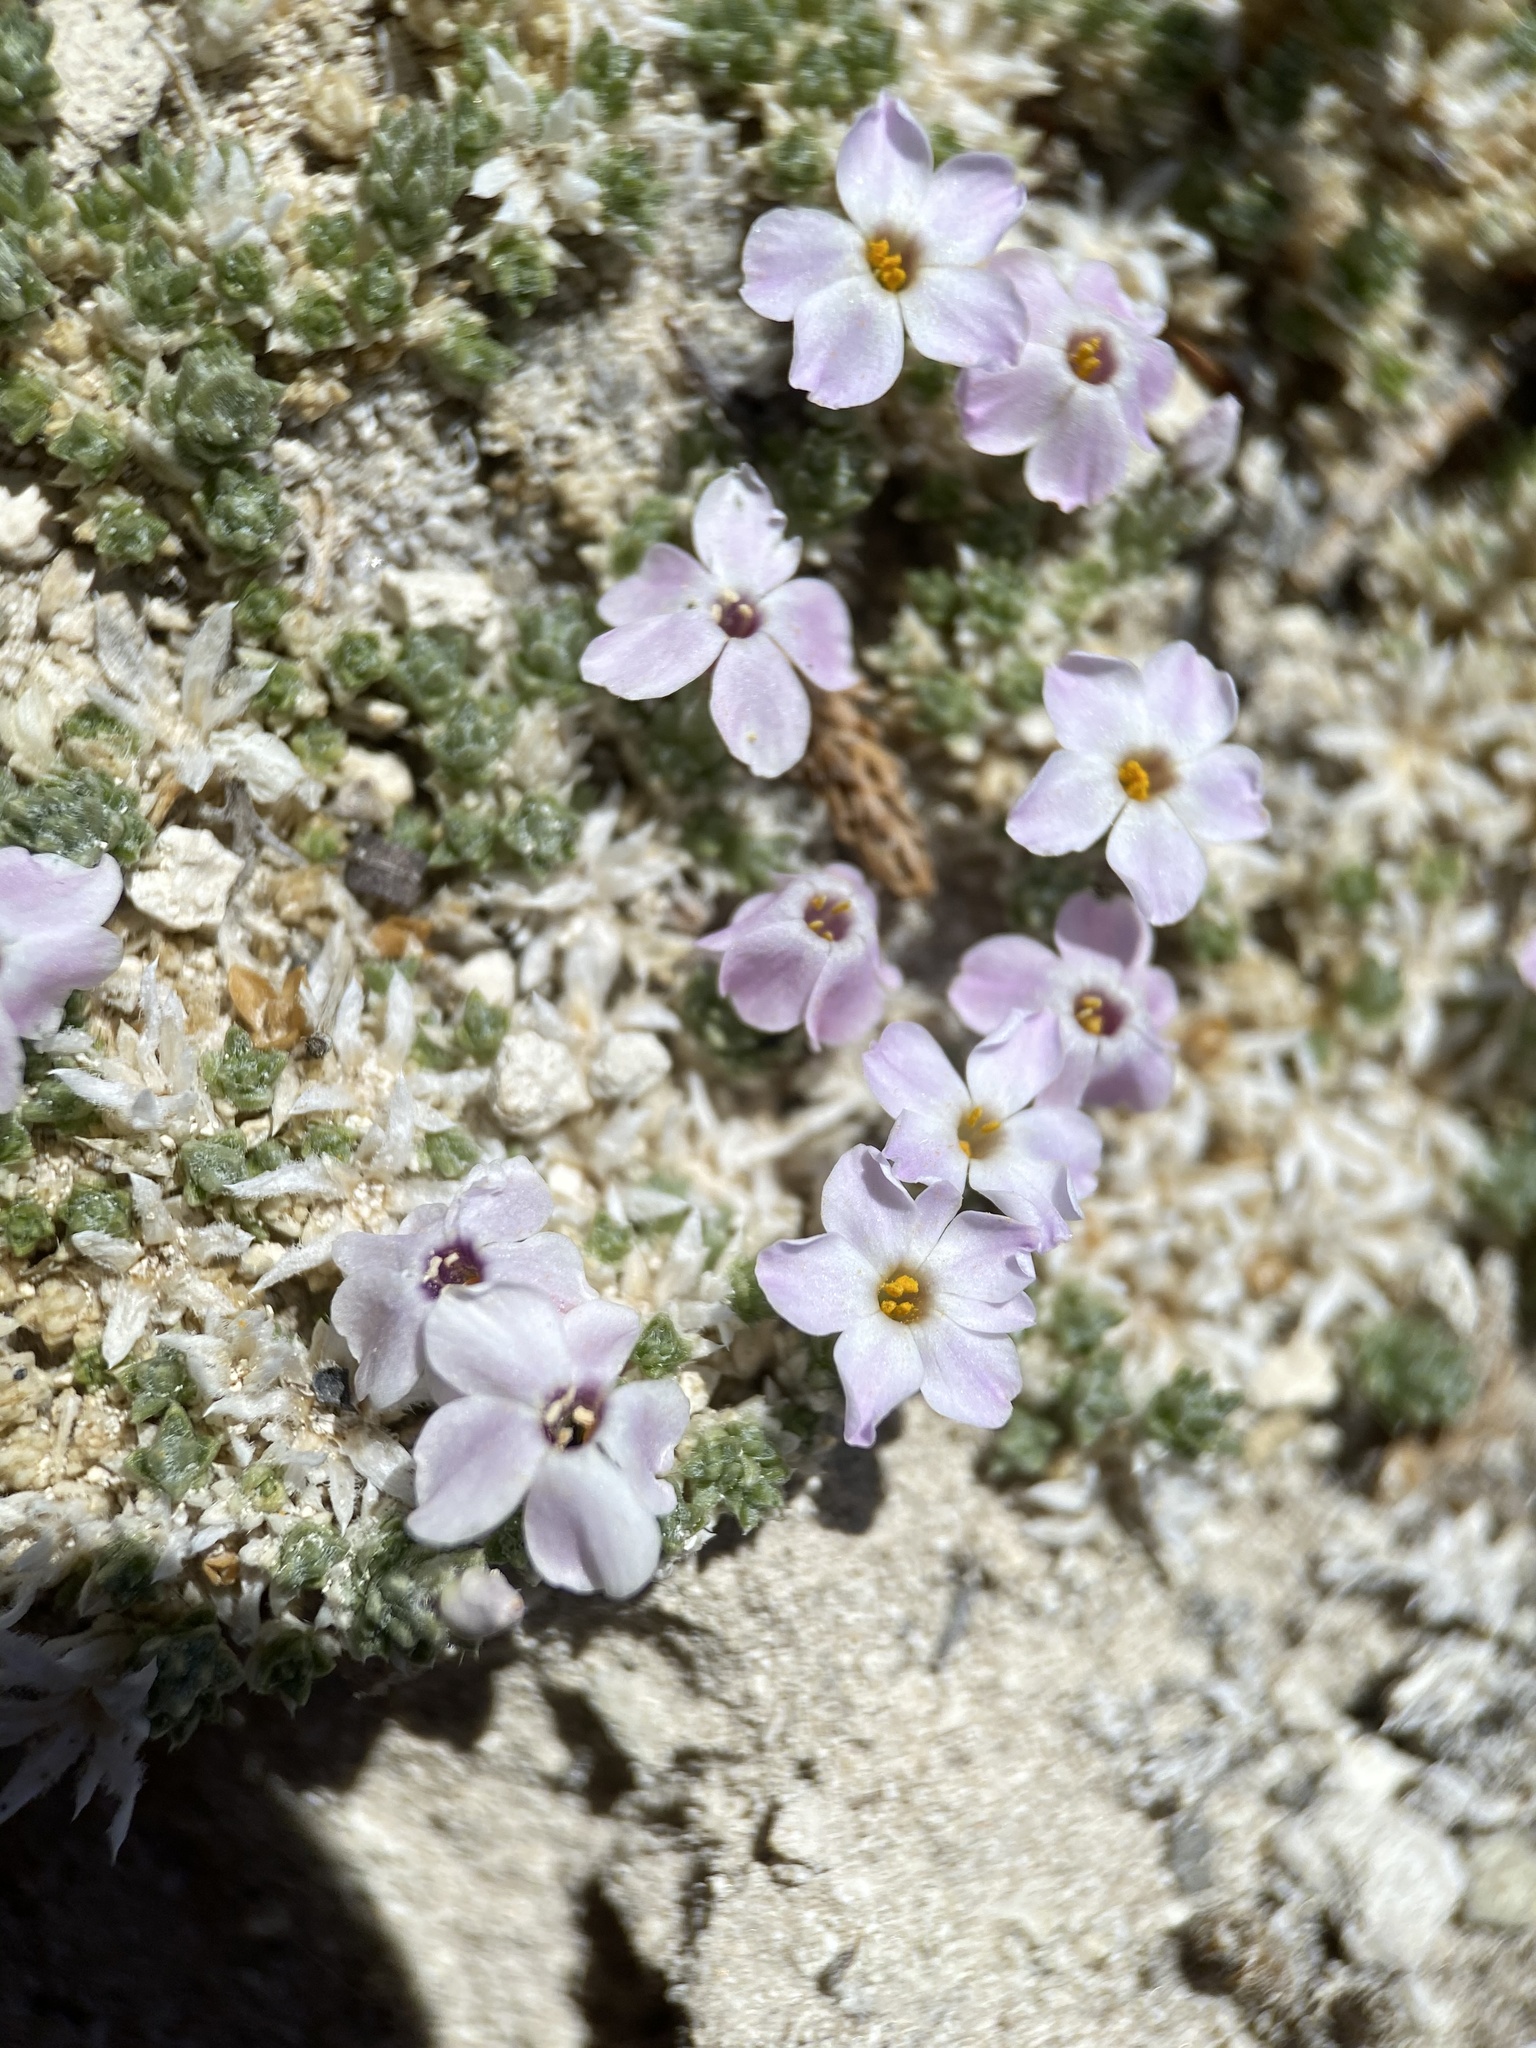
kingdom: Plantae
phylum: Tracheophyta
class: Magnoliopsida
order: Ericales
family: Polemoniaceae
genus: Phlox
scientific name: Phlox griseola
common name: Gray-leaf phlox
